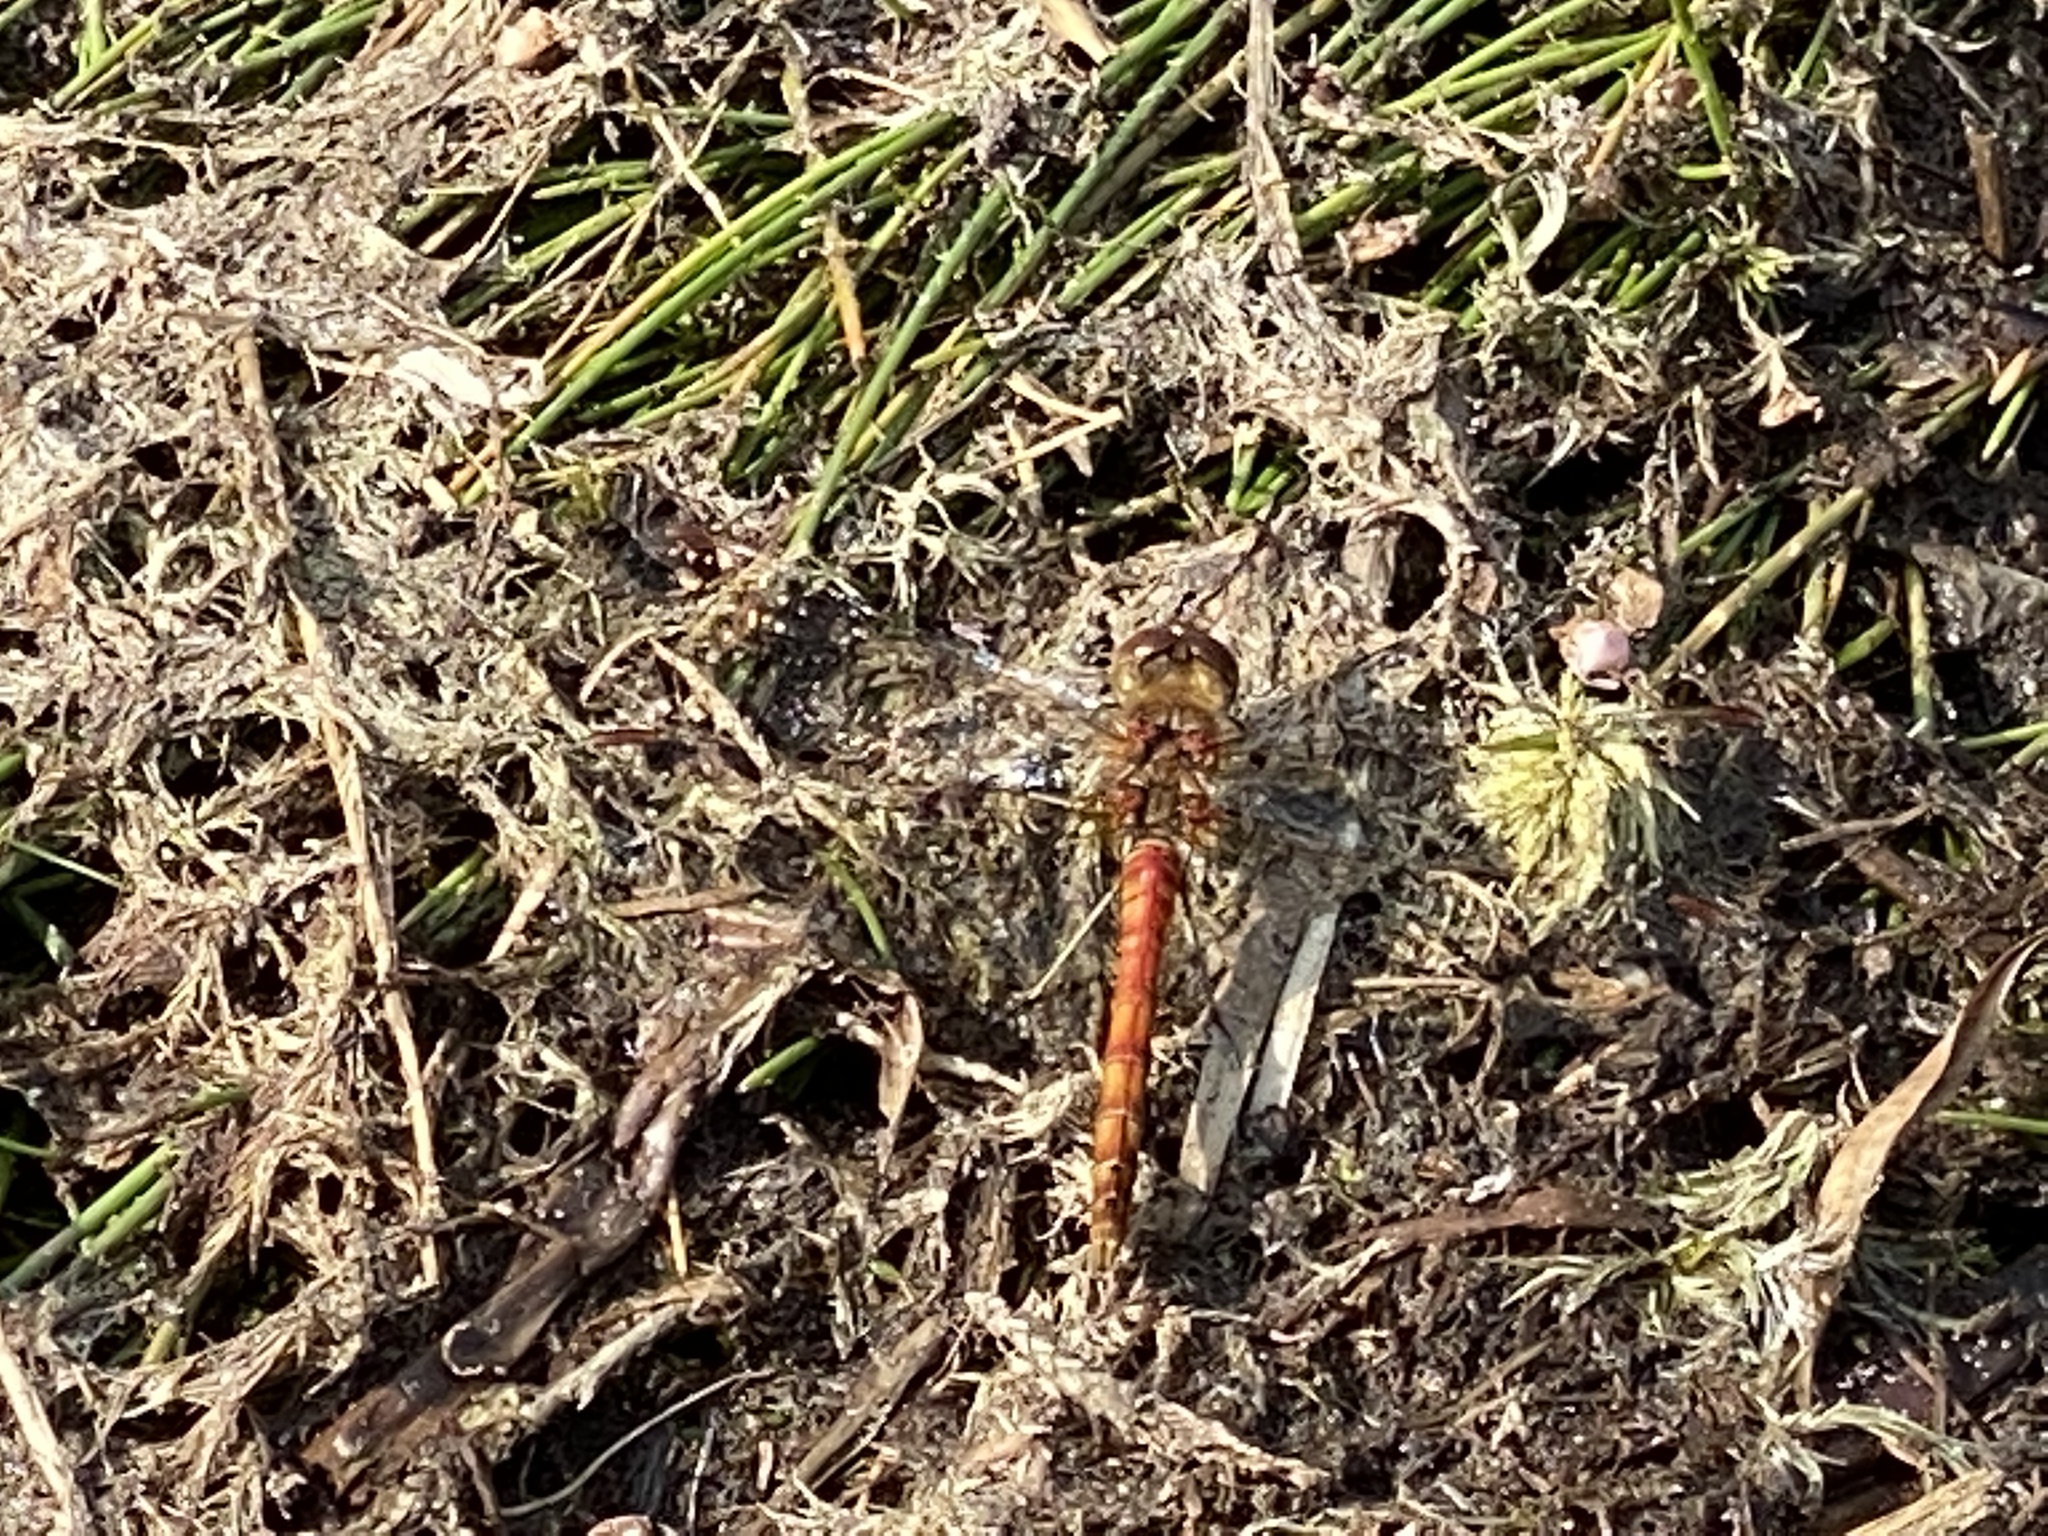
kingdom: Animalia
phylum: Arthropoda
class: Insecta
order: Odonata
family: Libellulidae
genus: Sympetrum
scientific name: Sympetrum striolatum
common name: Common darter
